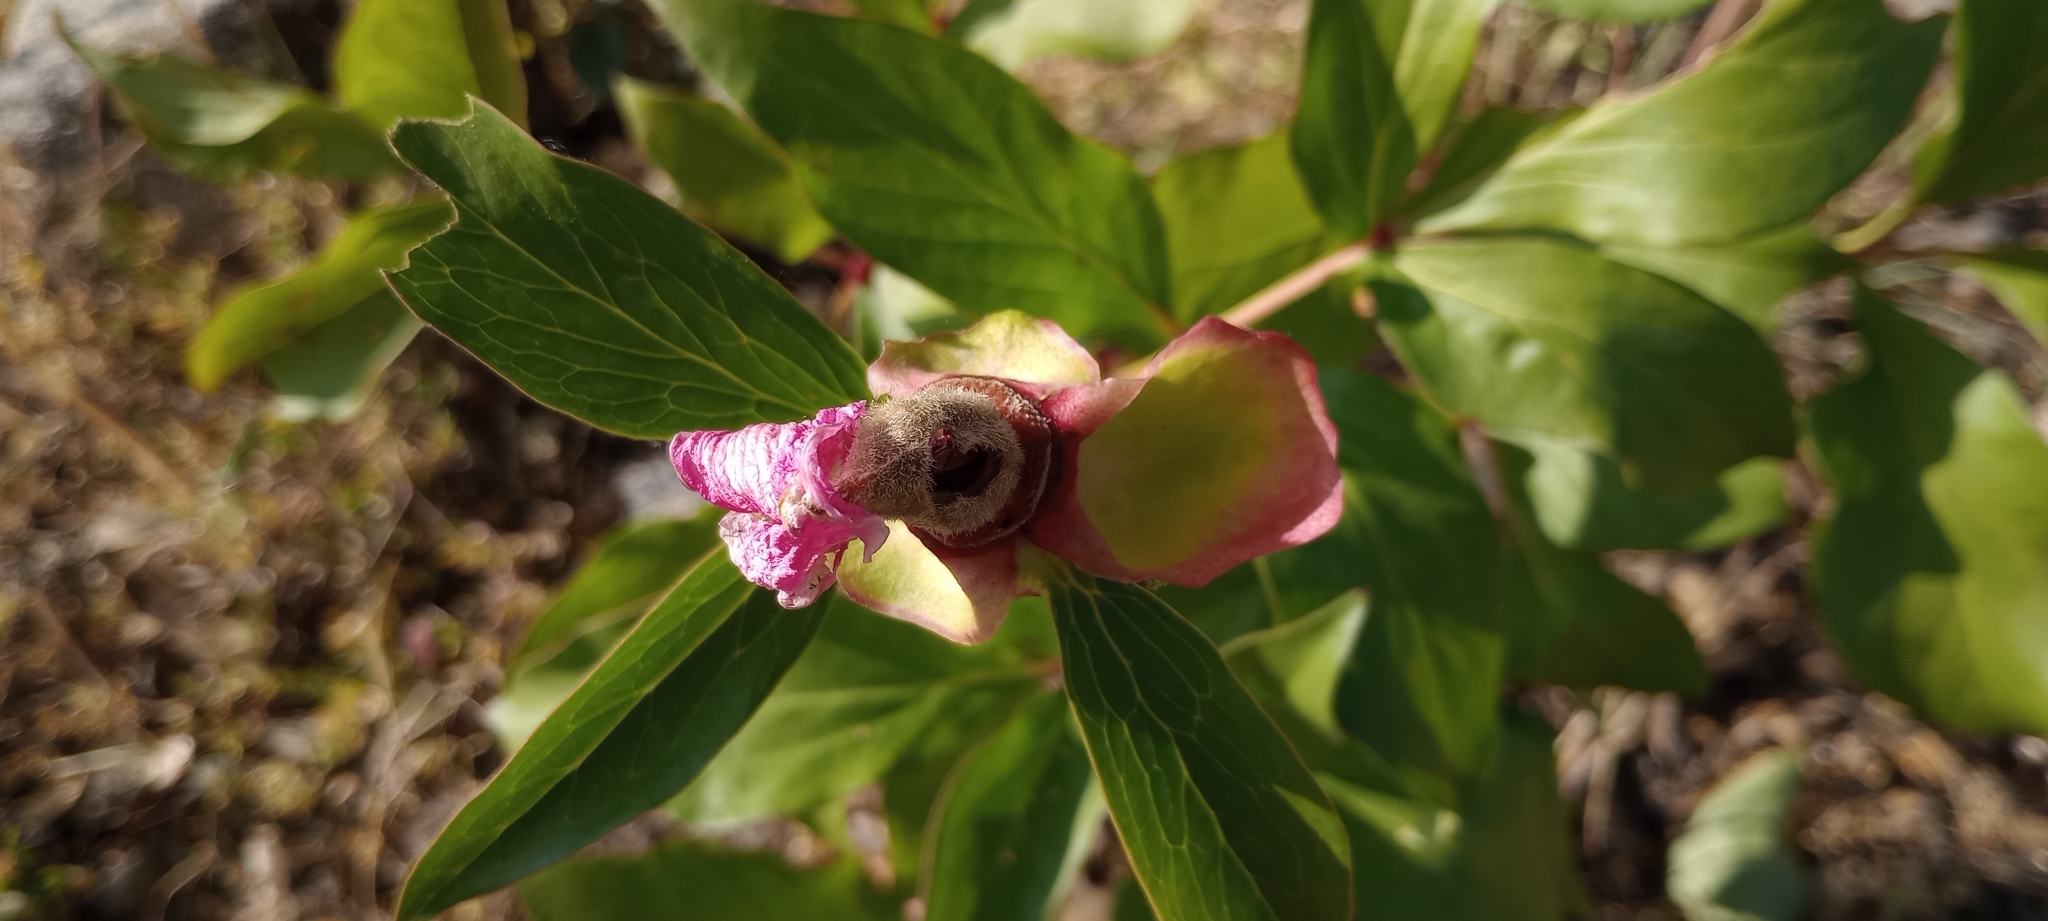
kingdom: Plantae
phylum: Tracheophyta
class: Magnoliopsida
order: Saxifragales
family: Paeoniaceae
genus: Paeonia
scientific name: Paeonia broteroi
